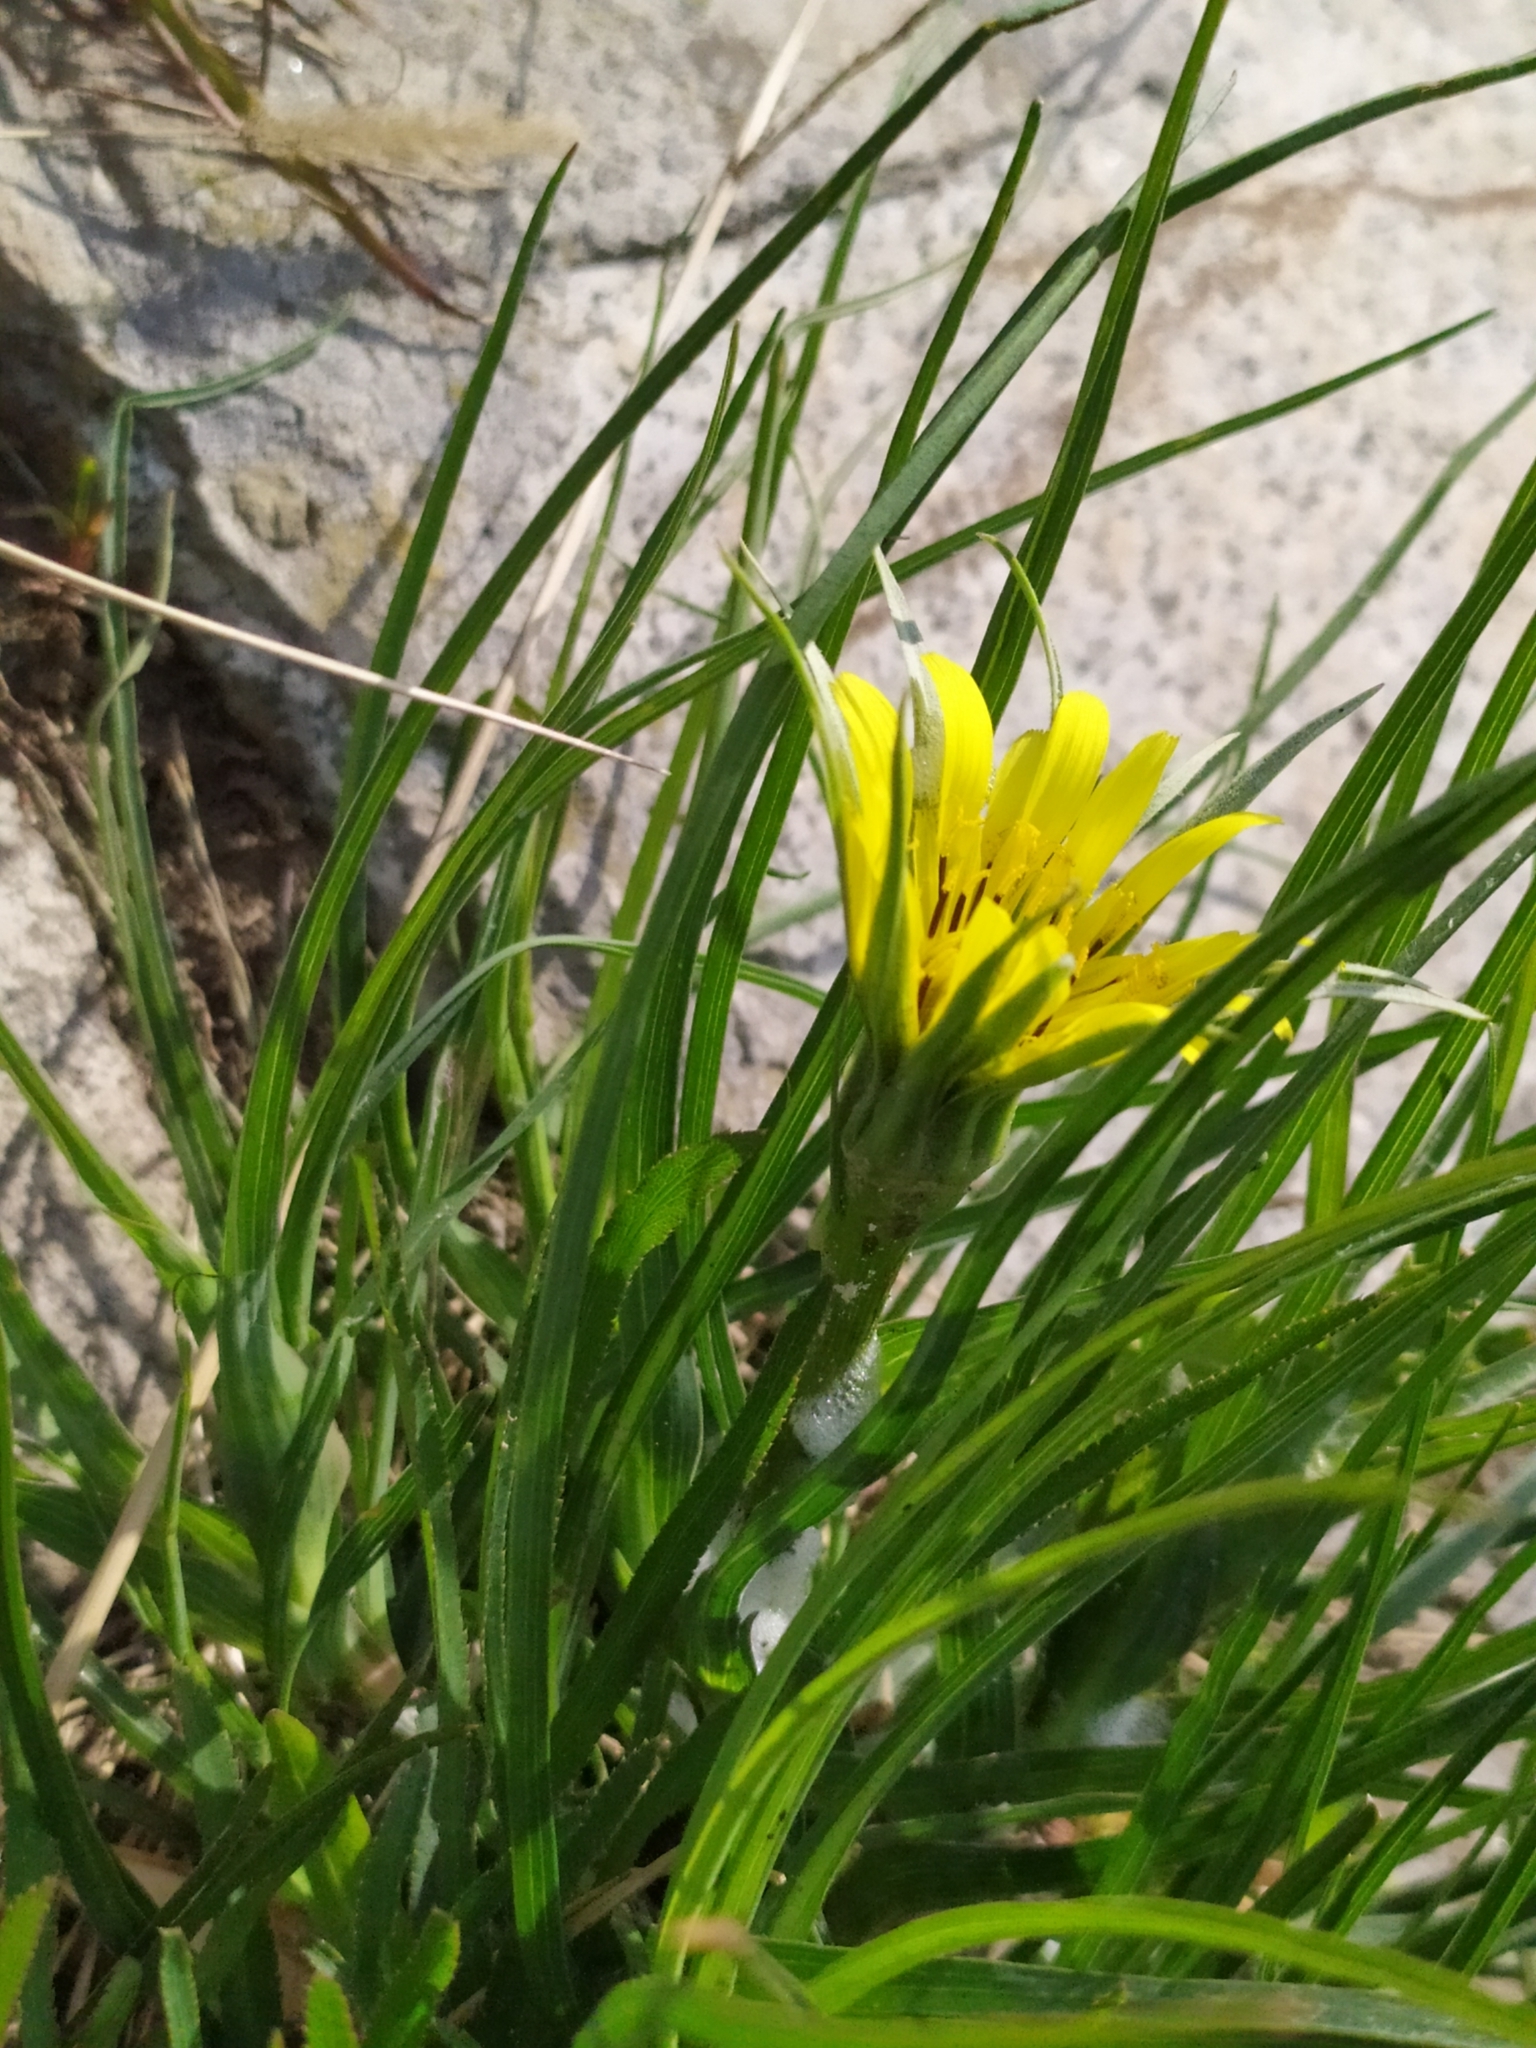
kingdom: Plantae
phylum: Tracheophyta
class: Magnoliopsida
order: Asterales
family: Asteraceae
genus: Tragopogon
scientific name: Tragopogon dubius
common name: Yellow salsify
